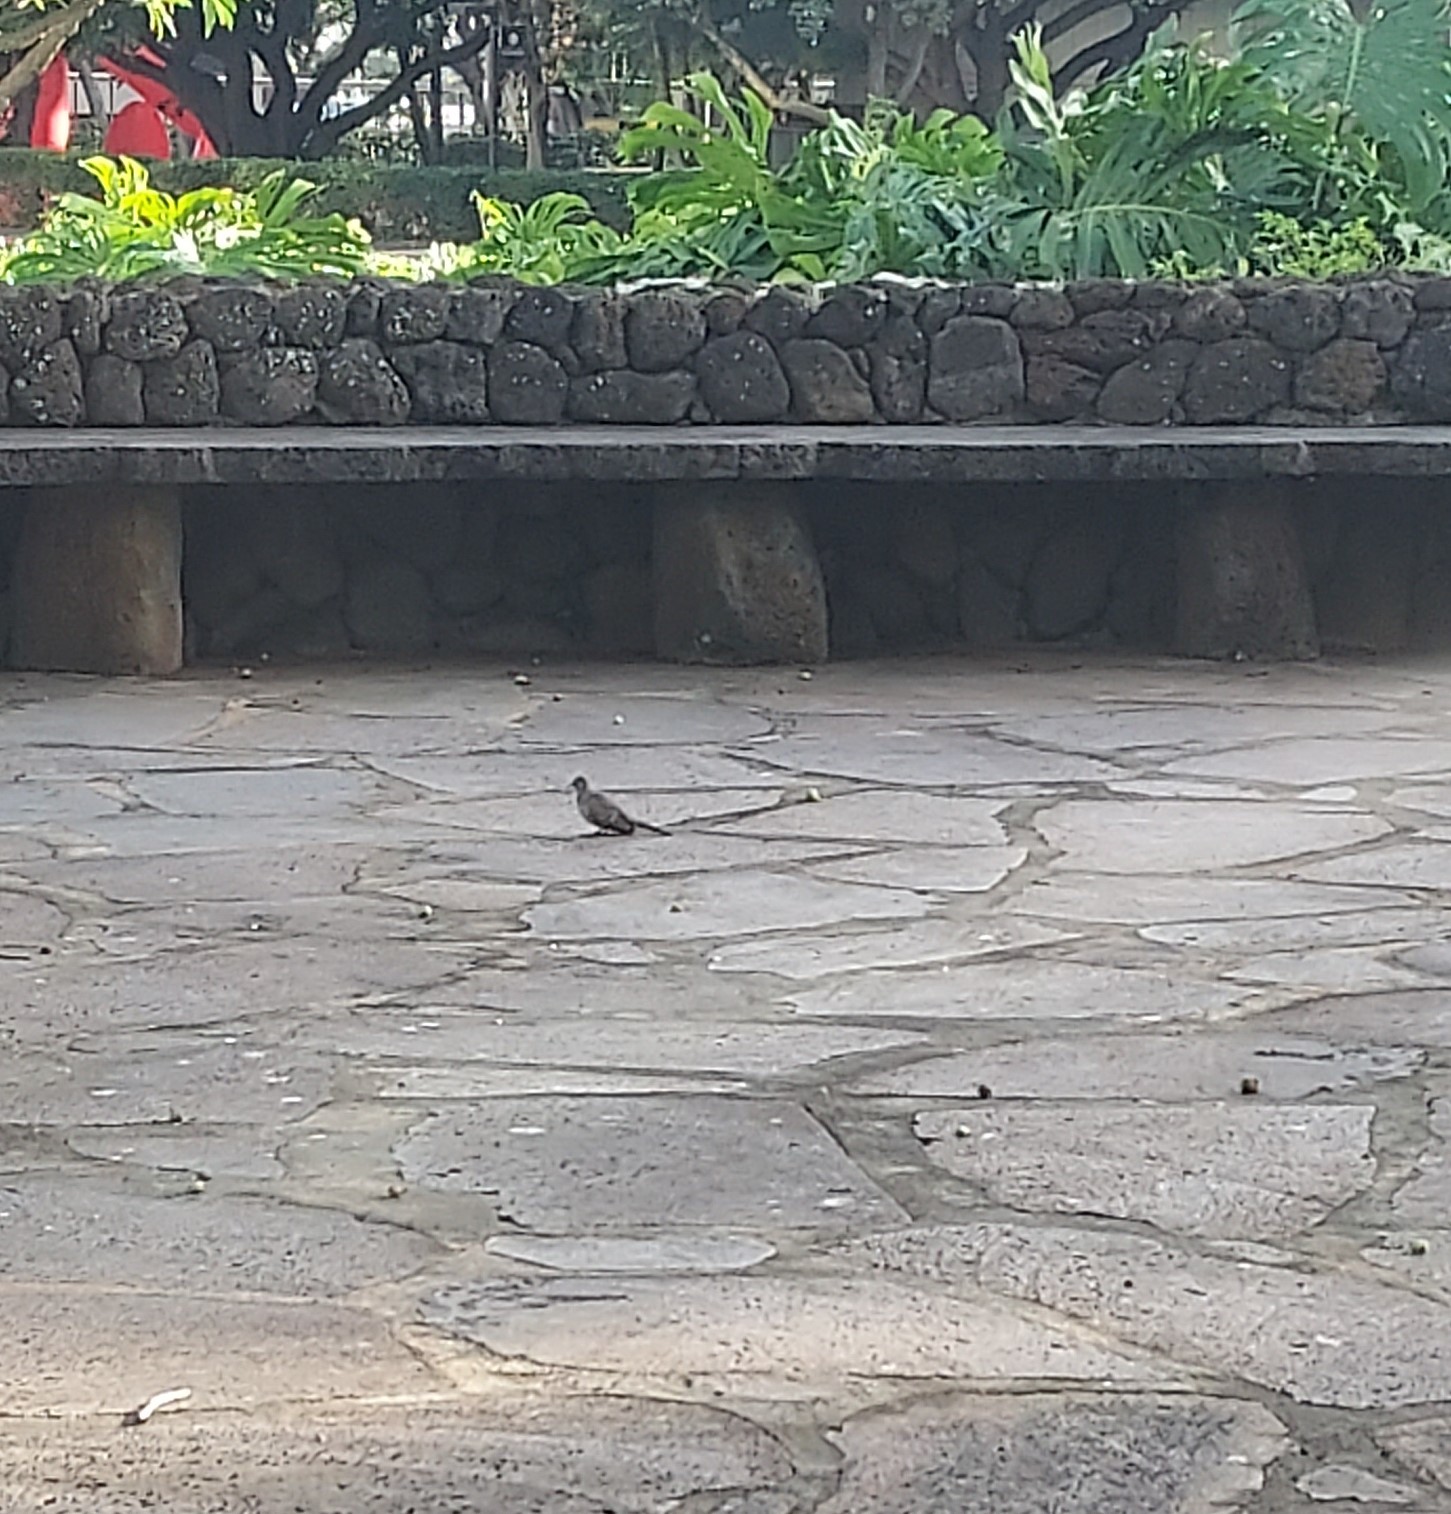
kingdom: Animalia
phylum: Chordata
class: Aves
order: Columbiformes
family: Columbidae
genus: Geopelia
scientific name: Geopelia striata
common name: Zebra dove
